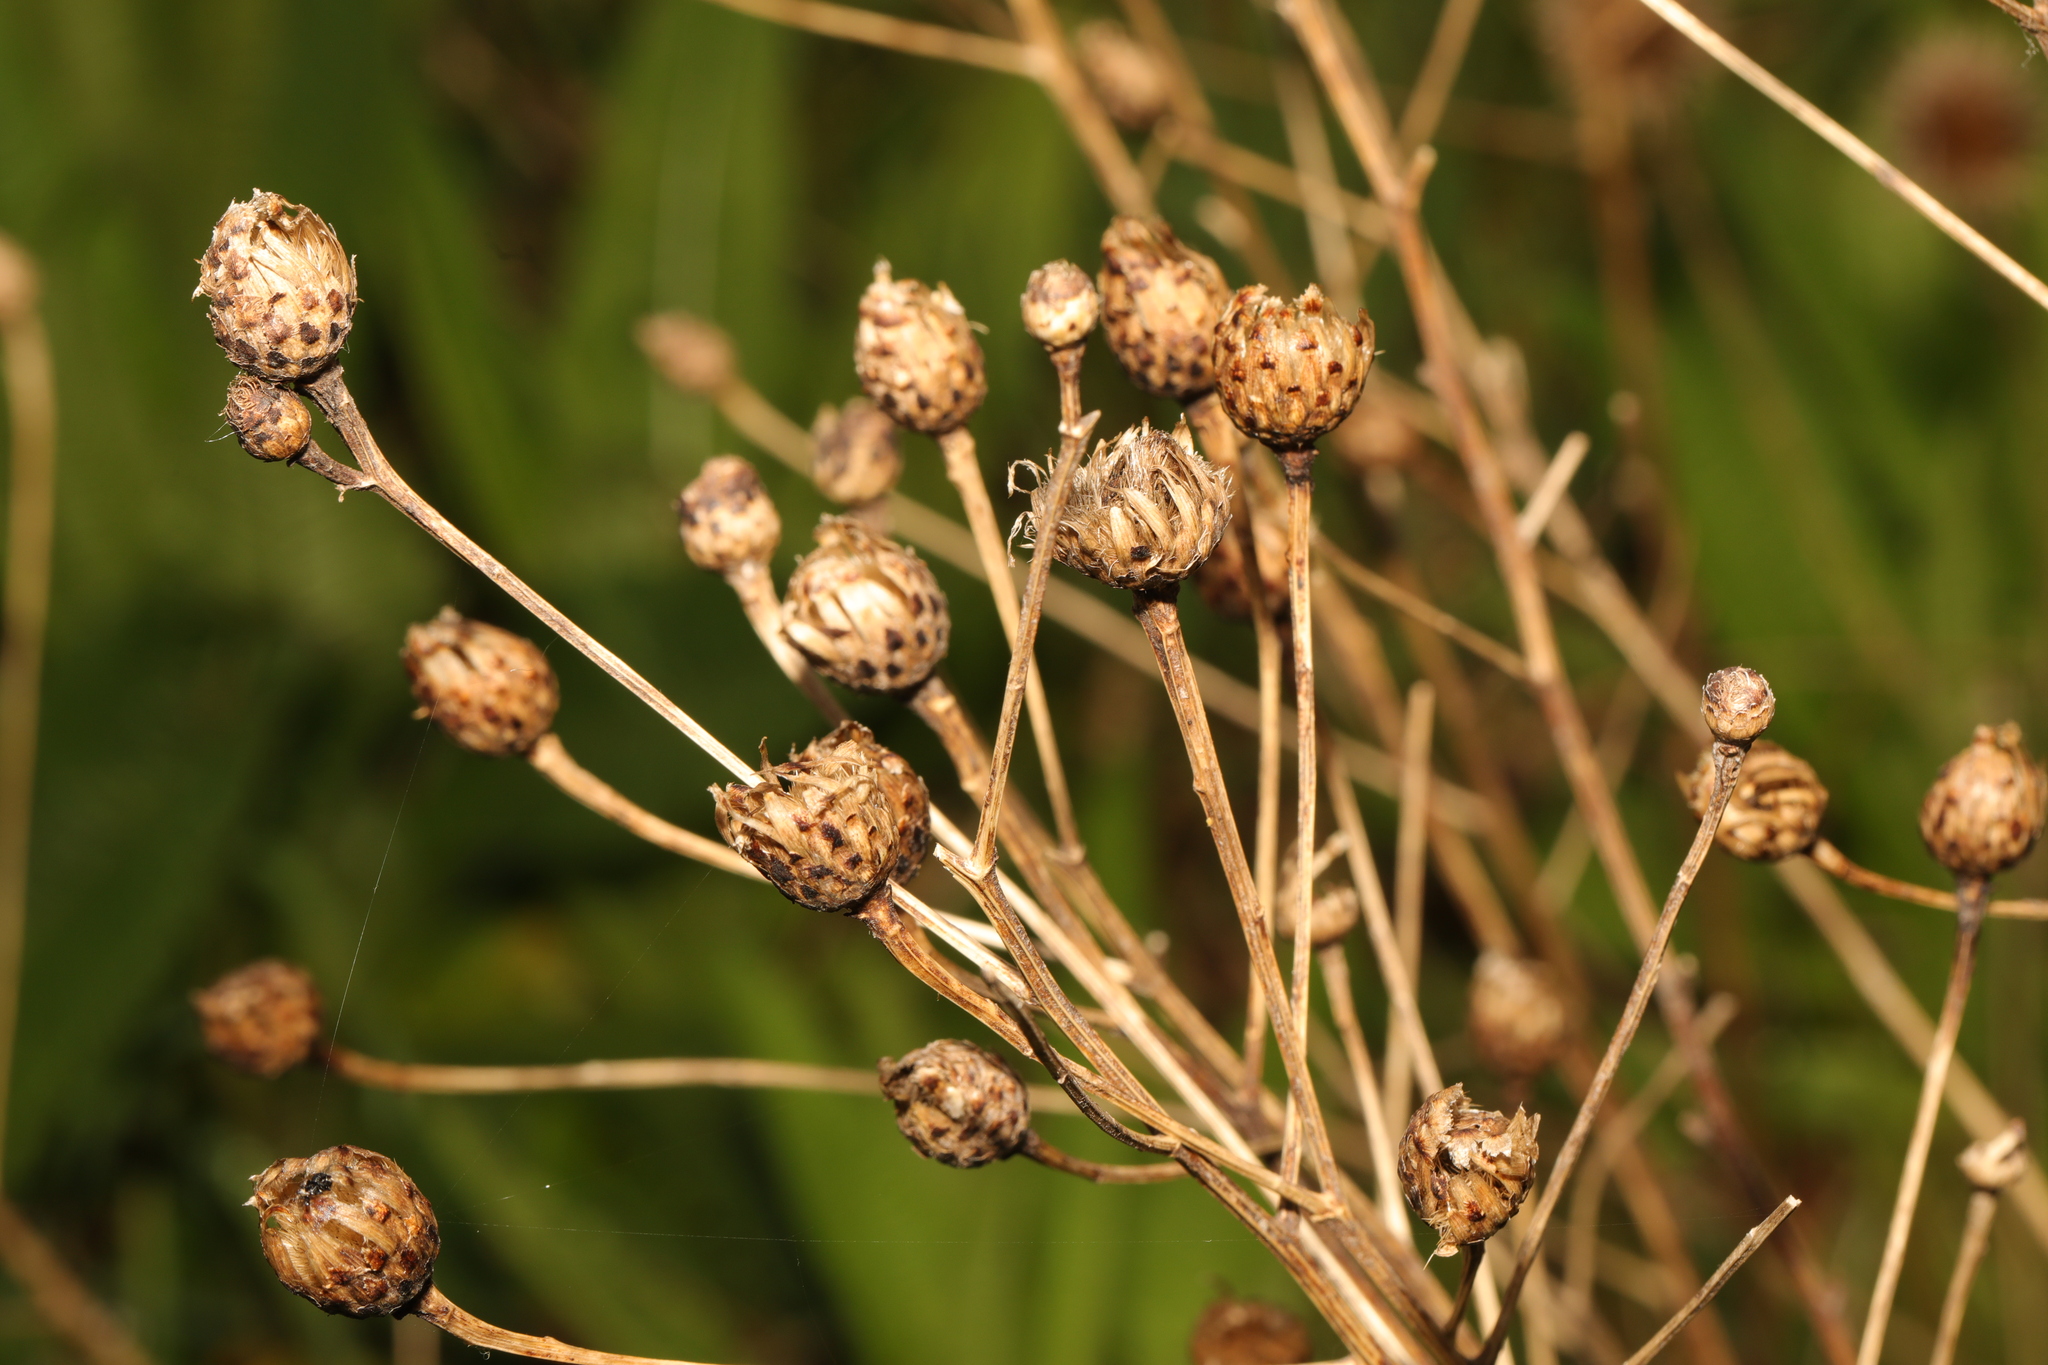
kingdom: Plantae
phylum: Tracheophyta
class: Magnoliopsida
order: Asterales
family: Asteraceae
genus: Centaurea
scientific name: Centaurea nigra
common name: Lesser knapweed
